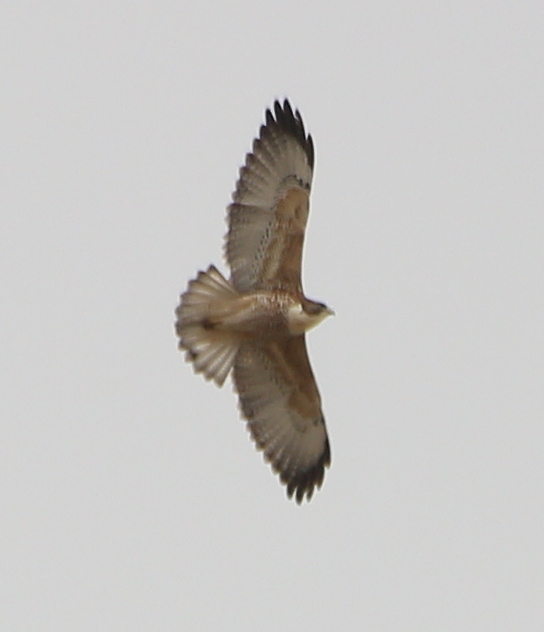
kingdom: Animalia
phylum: Chordata
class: Aves
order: Accipitriformes
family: Accipitridae
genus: Buteo
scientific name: Buteo polyosoma
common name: Variable hawk
